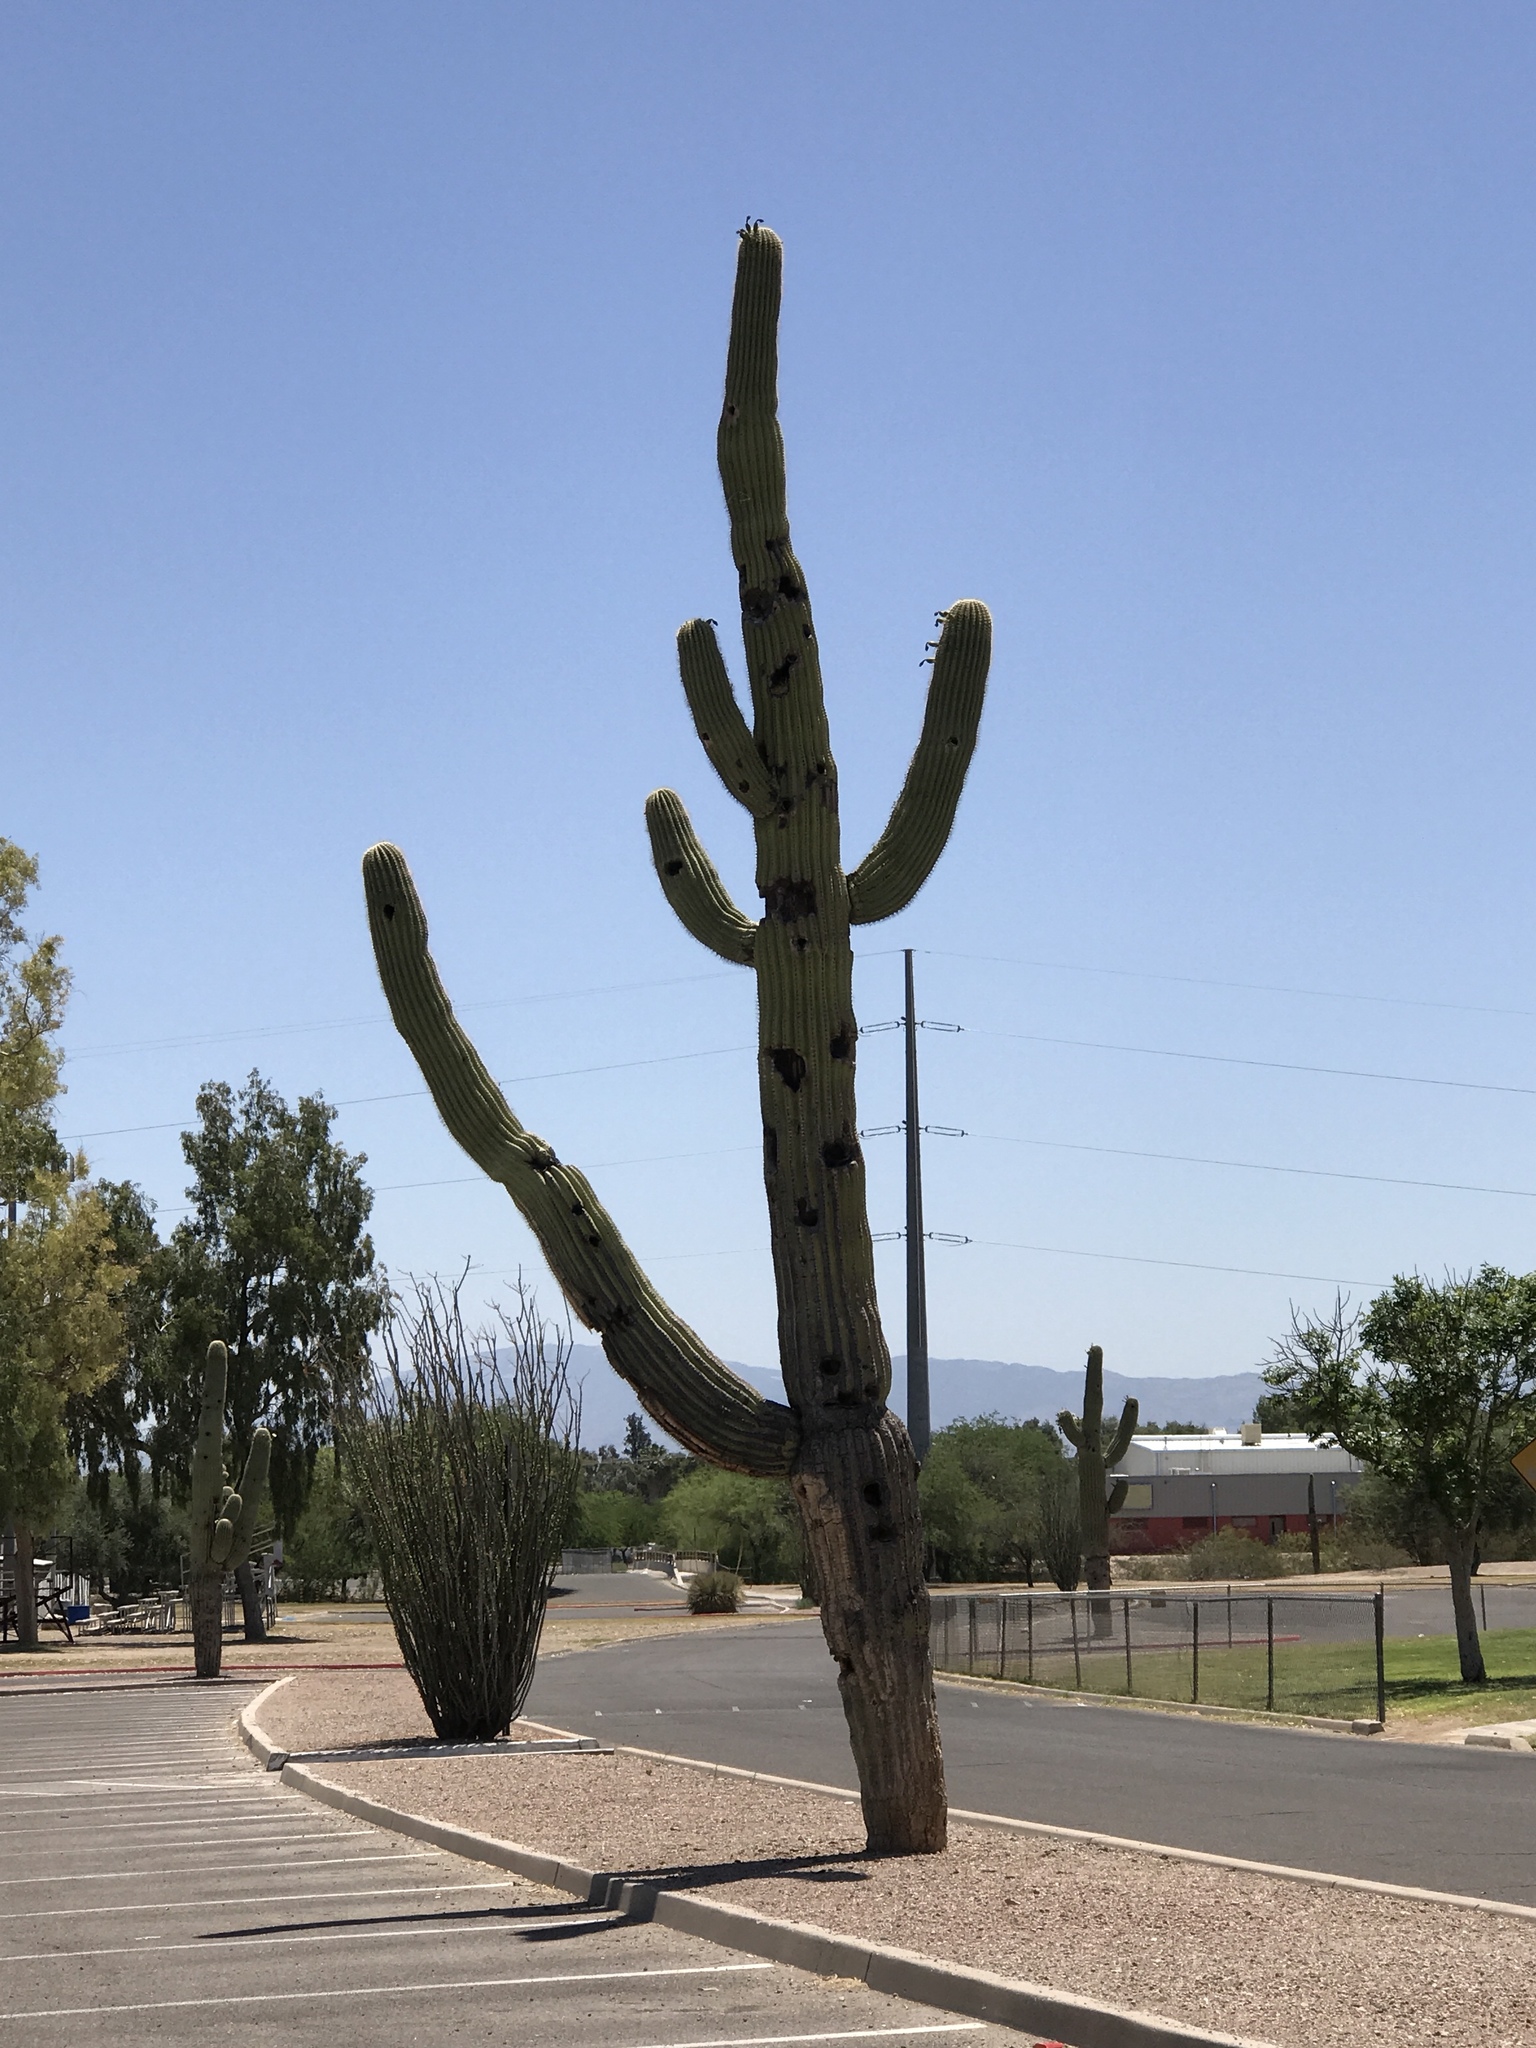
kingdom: Plantae
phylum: Tracheophyta
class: Magnoliopsida
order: Caryophyllales
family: Cactaceae
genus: Carnegiea
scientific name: Carnegiea gigantea
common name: Saguaro
